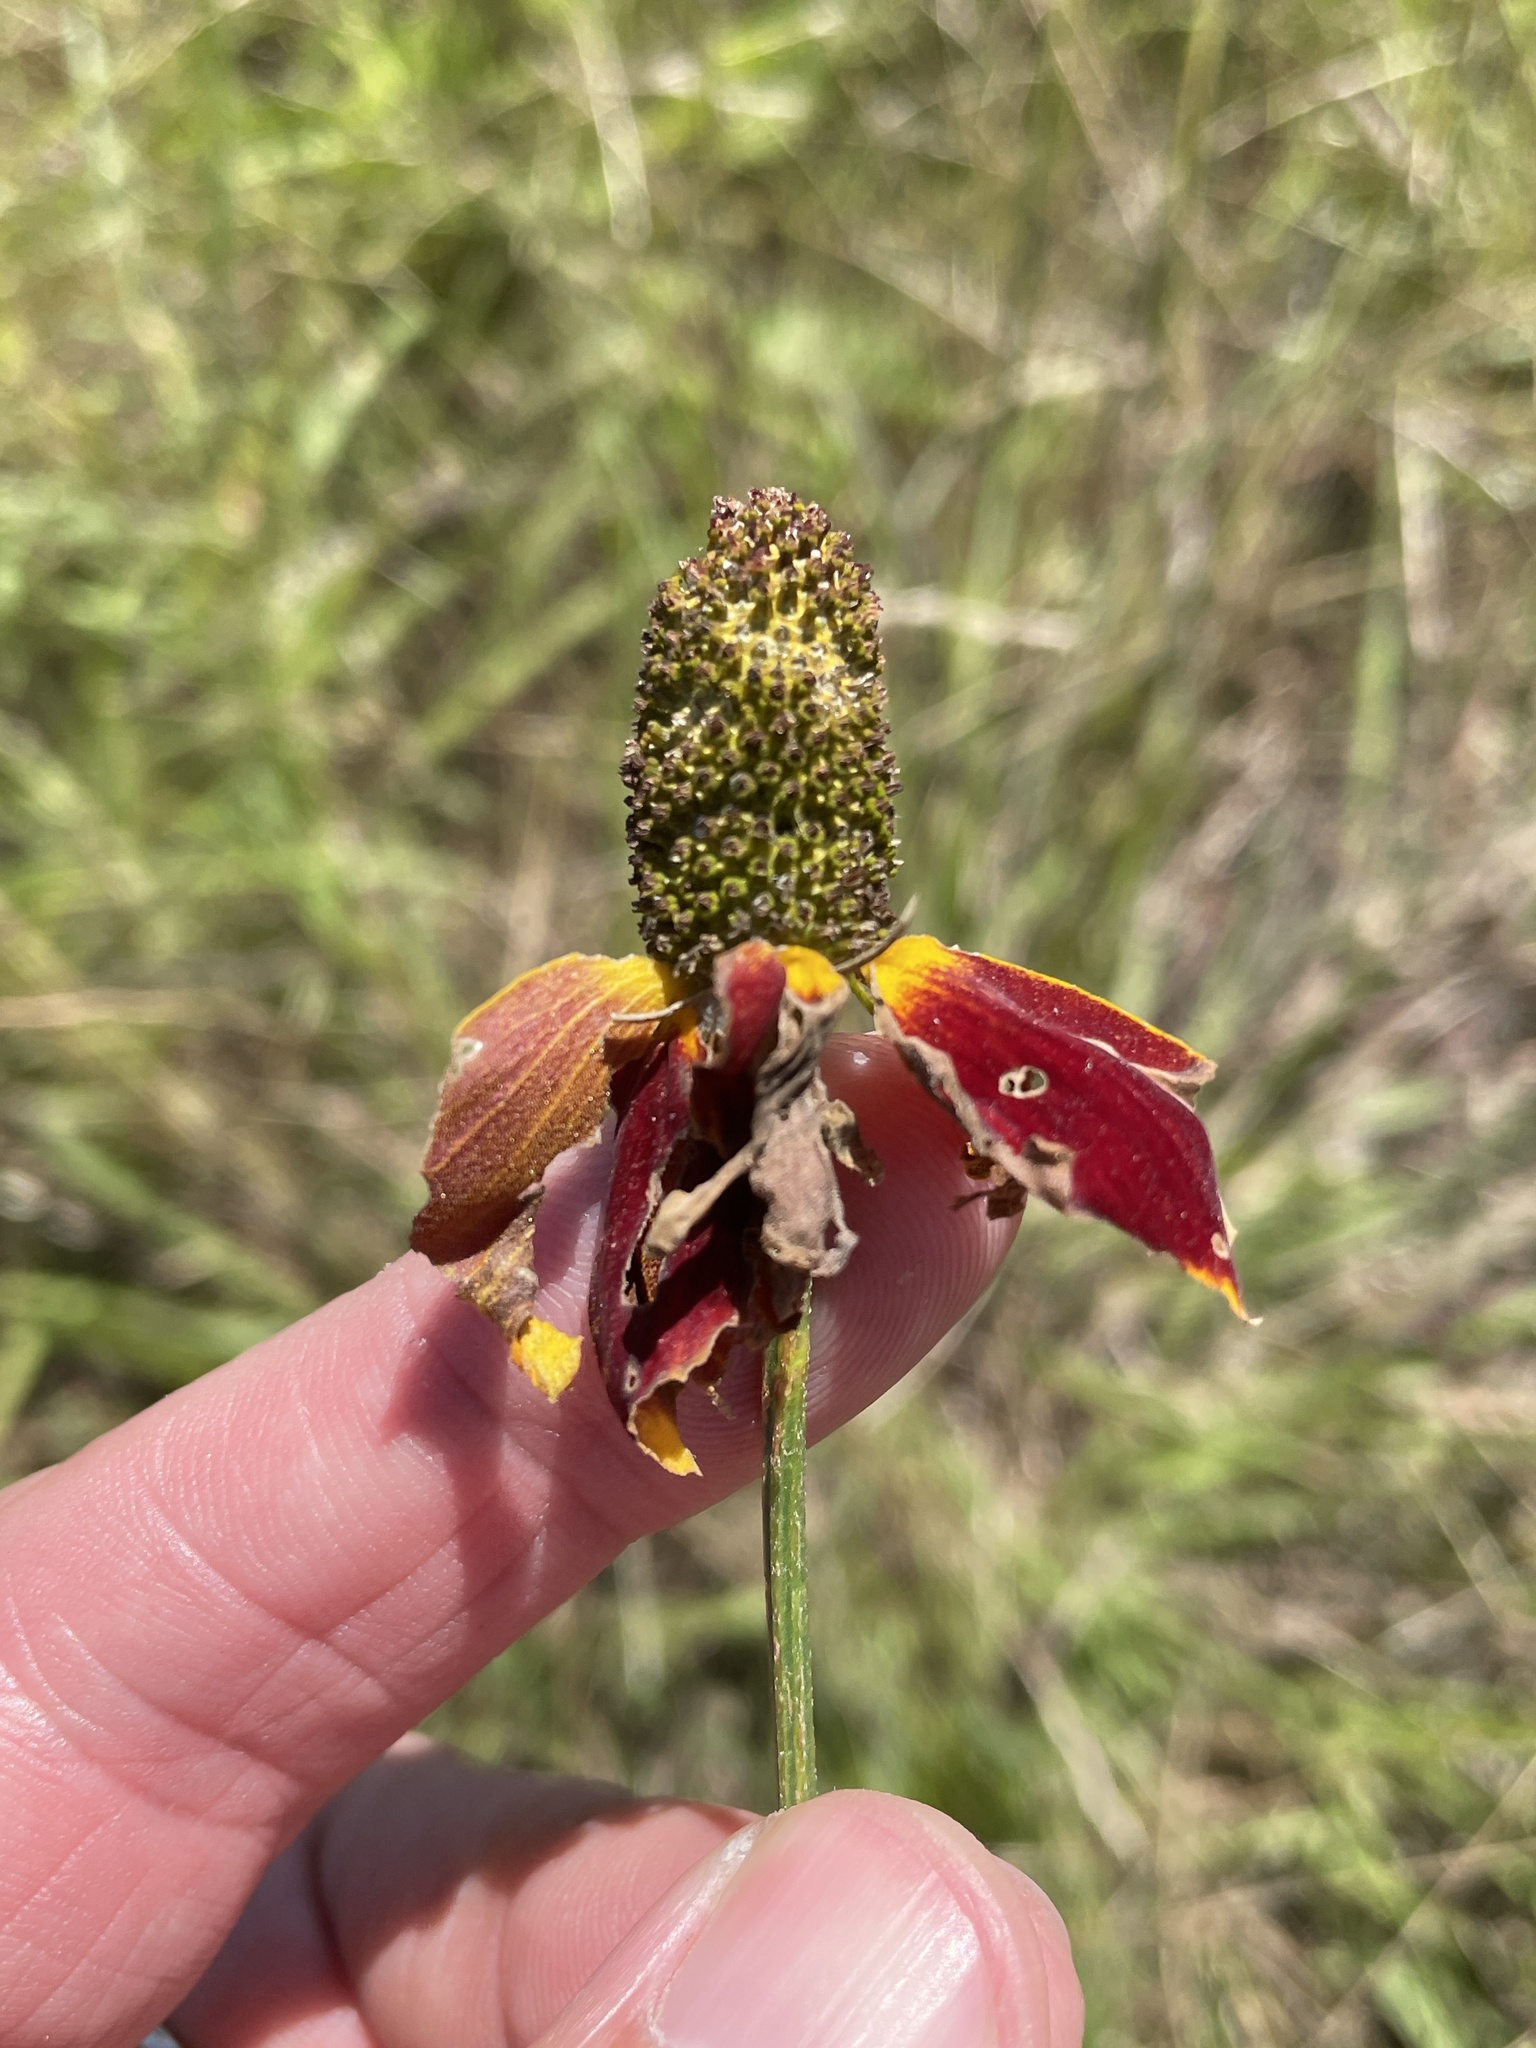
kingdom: Plantae
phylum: Tracheophyta
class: Magnoliopsida
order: Asterales
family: Asteraceae
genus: Ratibida
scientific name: Ratibida columnifera
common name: Prairie coneflower
